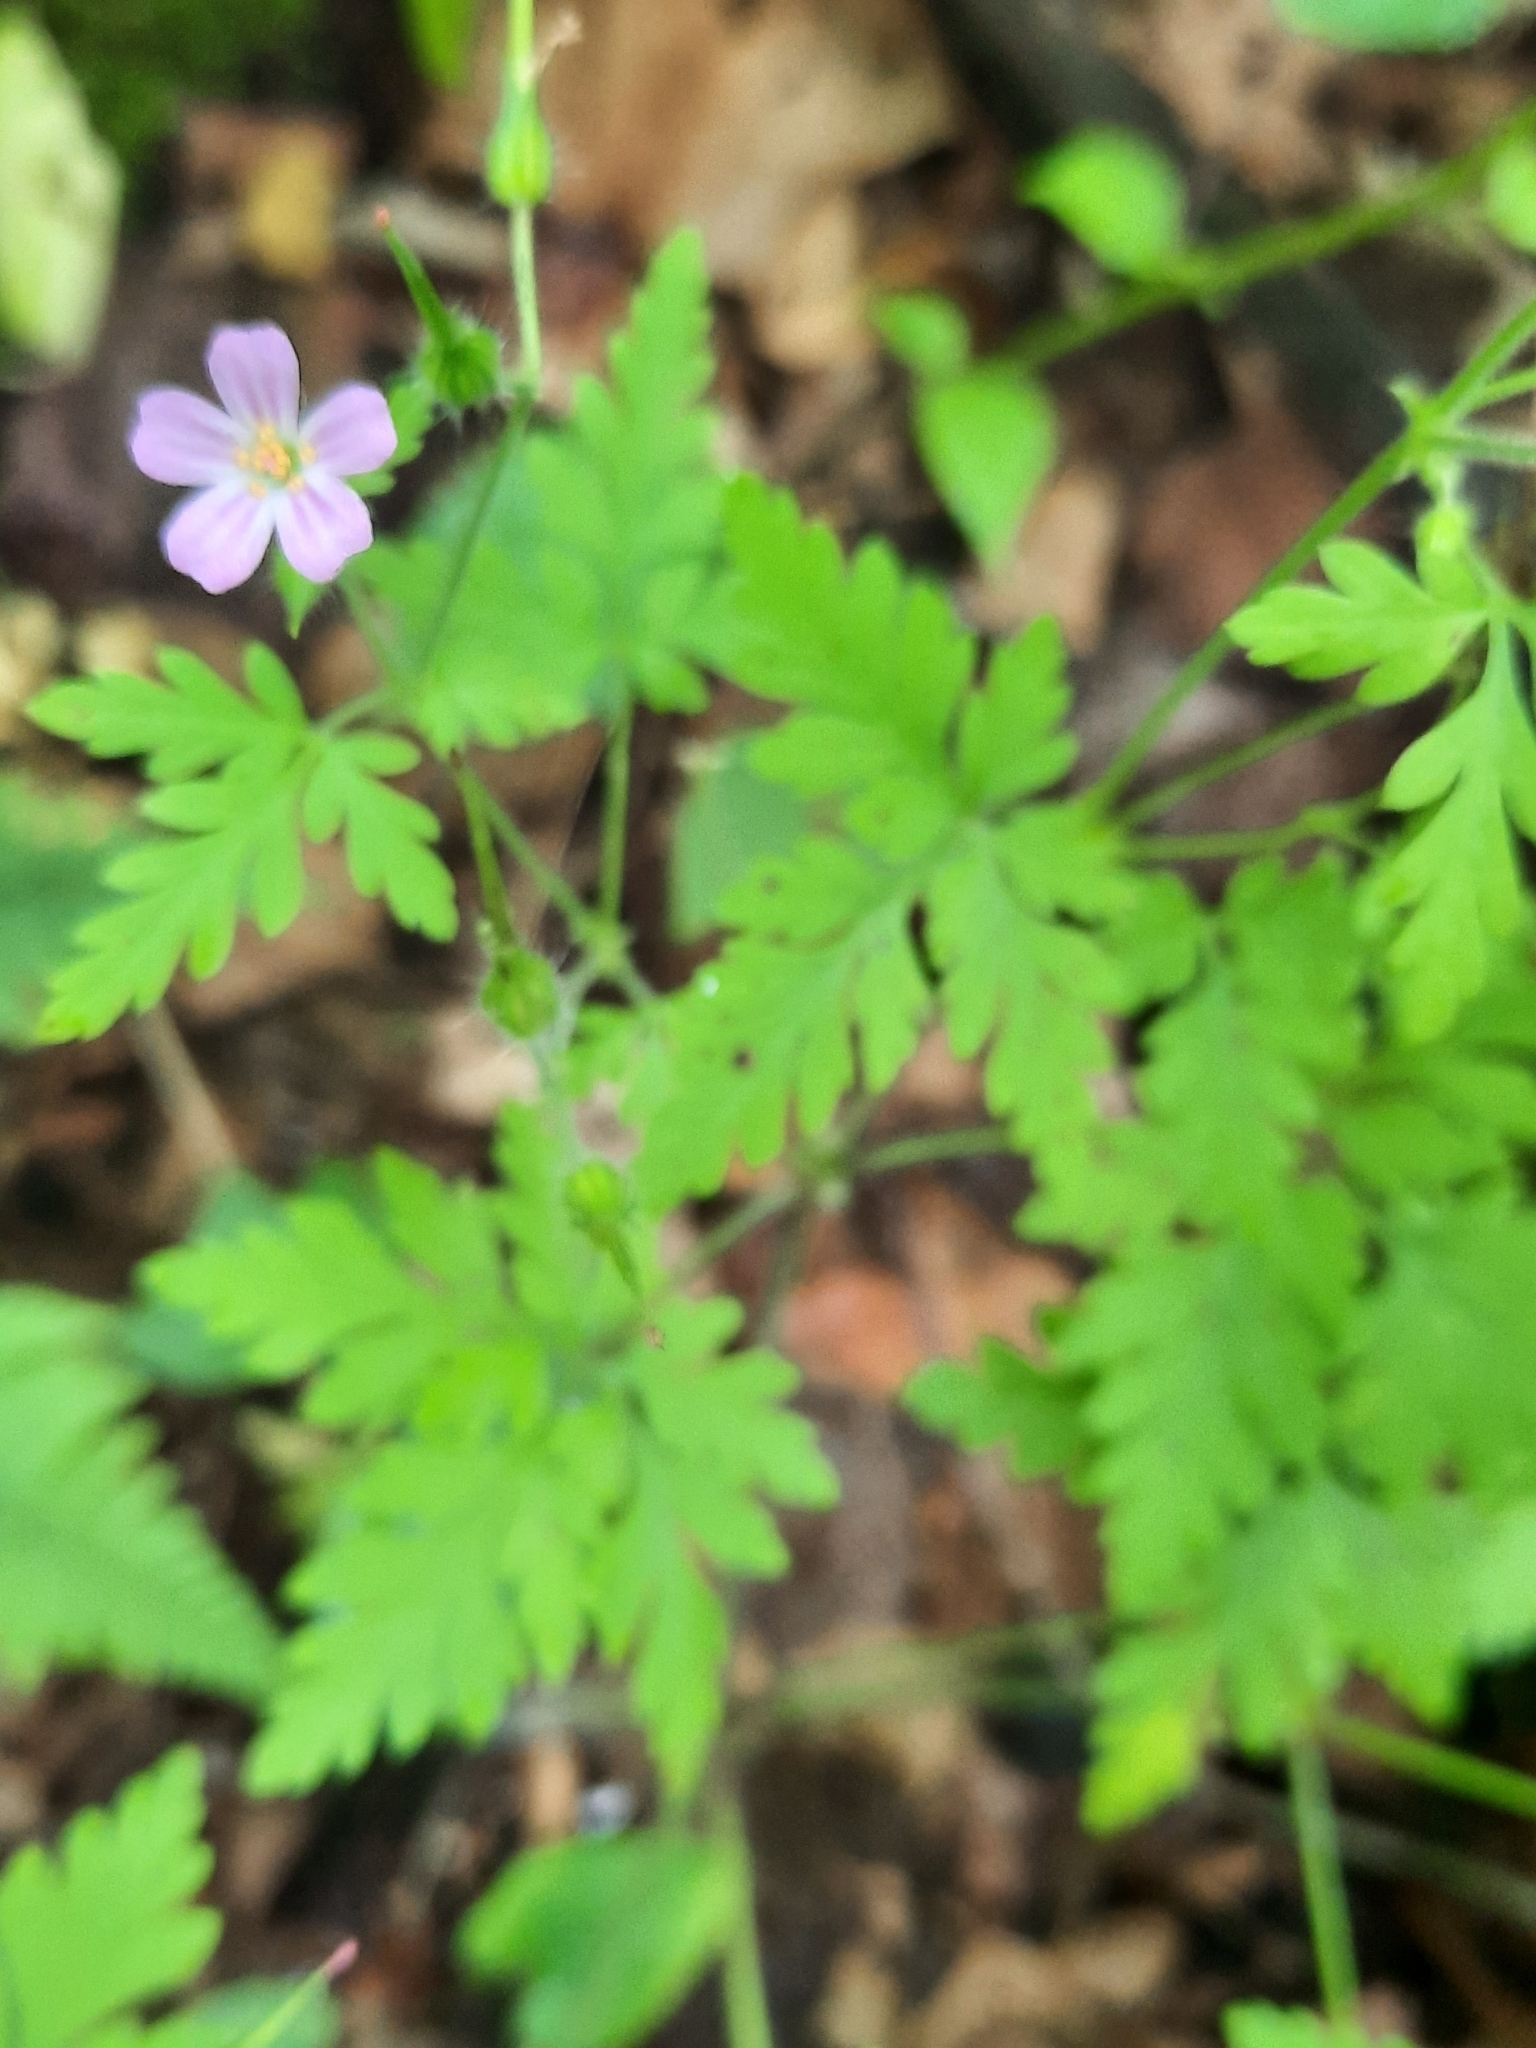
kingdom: Plantae
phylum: Tracheophyta
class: Magnoliopsida
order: Geraniales
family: Geraniaceae
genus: Geranium
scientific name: Geranium robertianum
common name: Herb-robert
